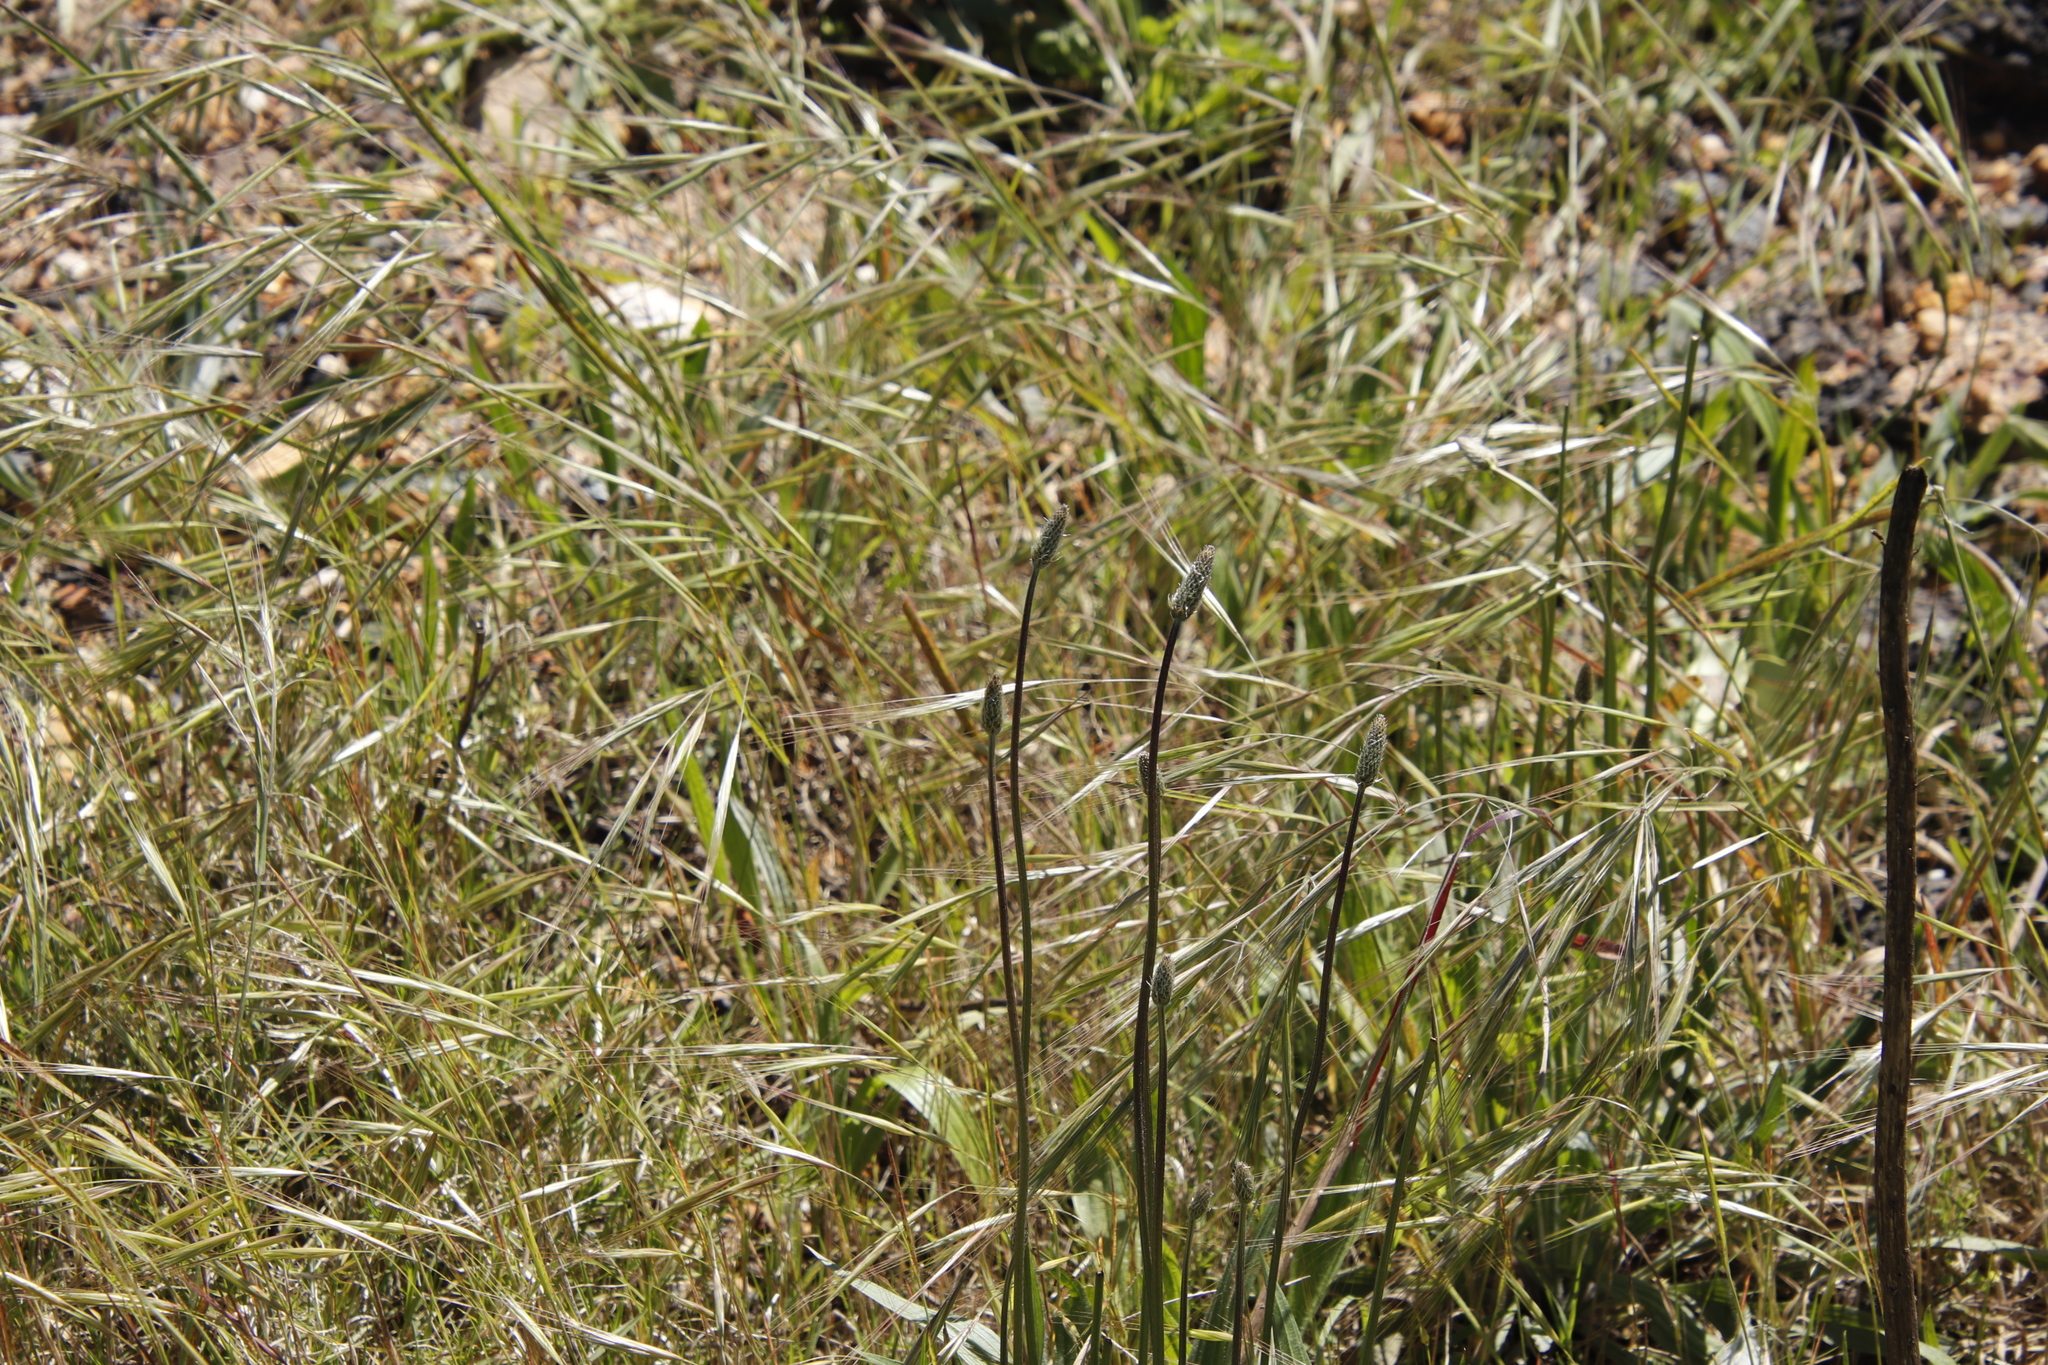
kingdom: Plantae
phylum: Tracheophyta
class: Liliopsida
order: Poales
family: Poaceae
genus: Avena
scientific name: Avena fatua
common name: Wild oat
